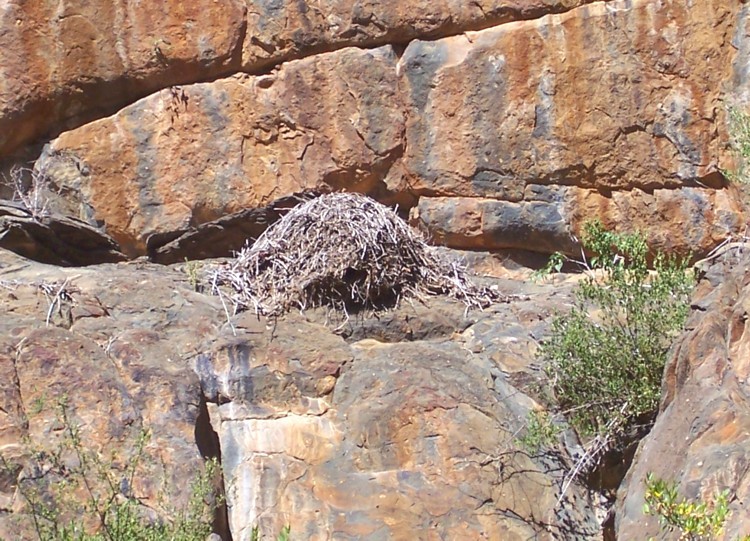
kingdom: Animalia
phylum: Chordata
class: Aves
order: Pelecaniformes
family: Scopidae
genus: Scopus
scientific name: Scopus umbretta
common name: Hamerkop
